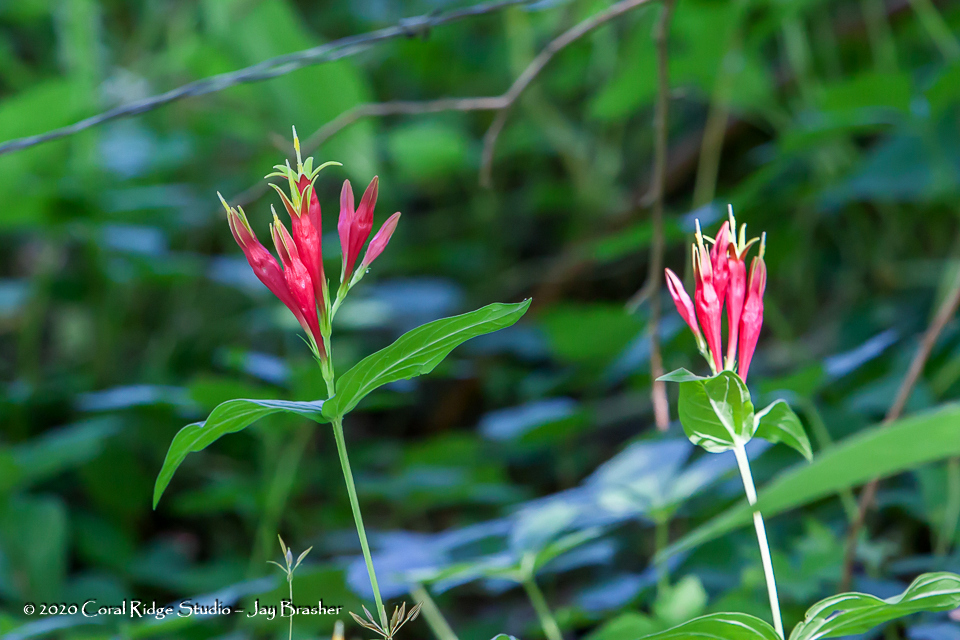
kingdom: Plantae
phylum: Tracheophyta
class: Magnoliopsida
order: Gentianales
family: Loganiaceae
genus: Spigelia
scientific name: Spigelia marilandica
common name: Indian-pink
